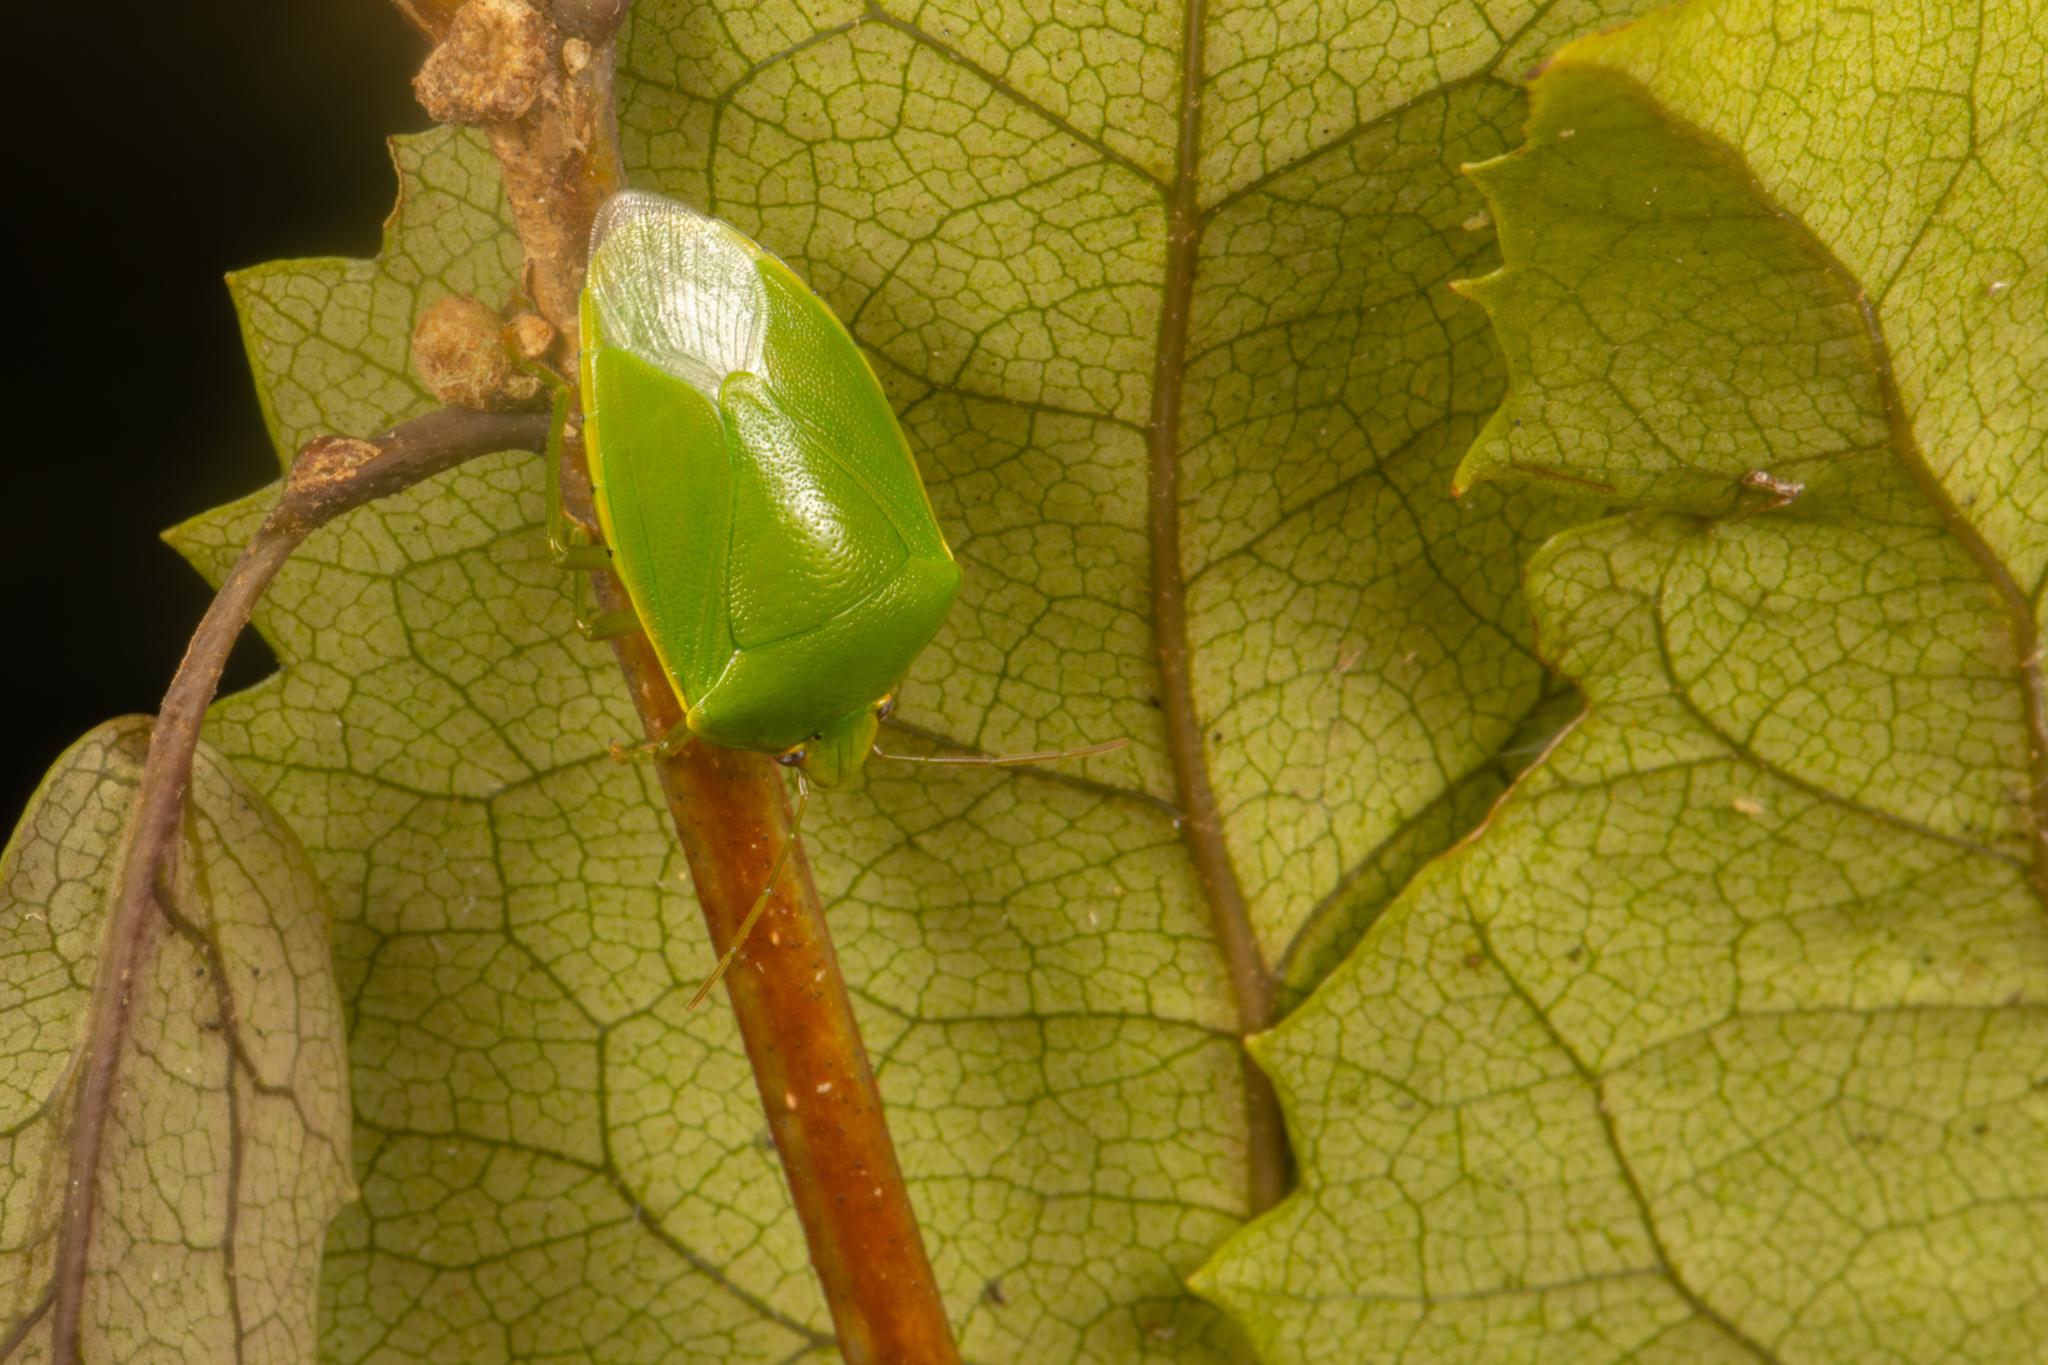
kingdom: Animalia
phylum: Arthropoda
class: Insecta
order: Hemiptera
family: Pentatomidae
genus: Glaucias
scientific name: Glaucias amyota
